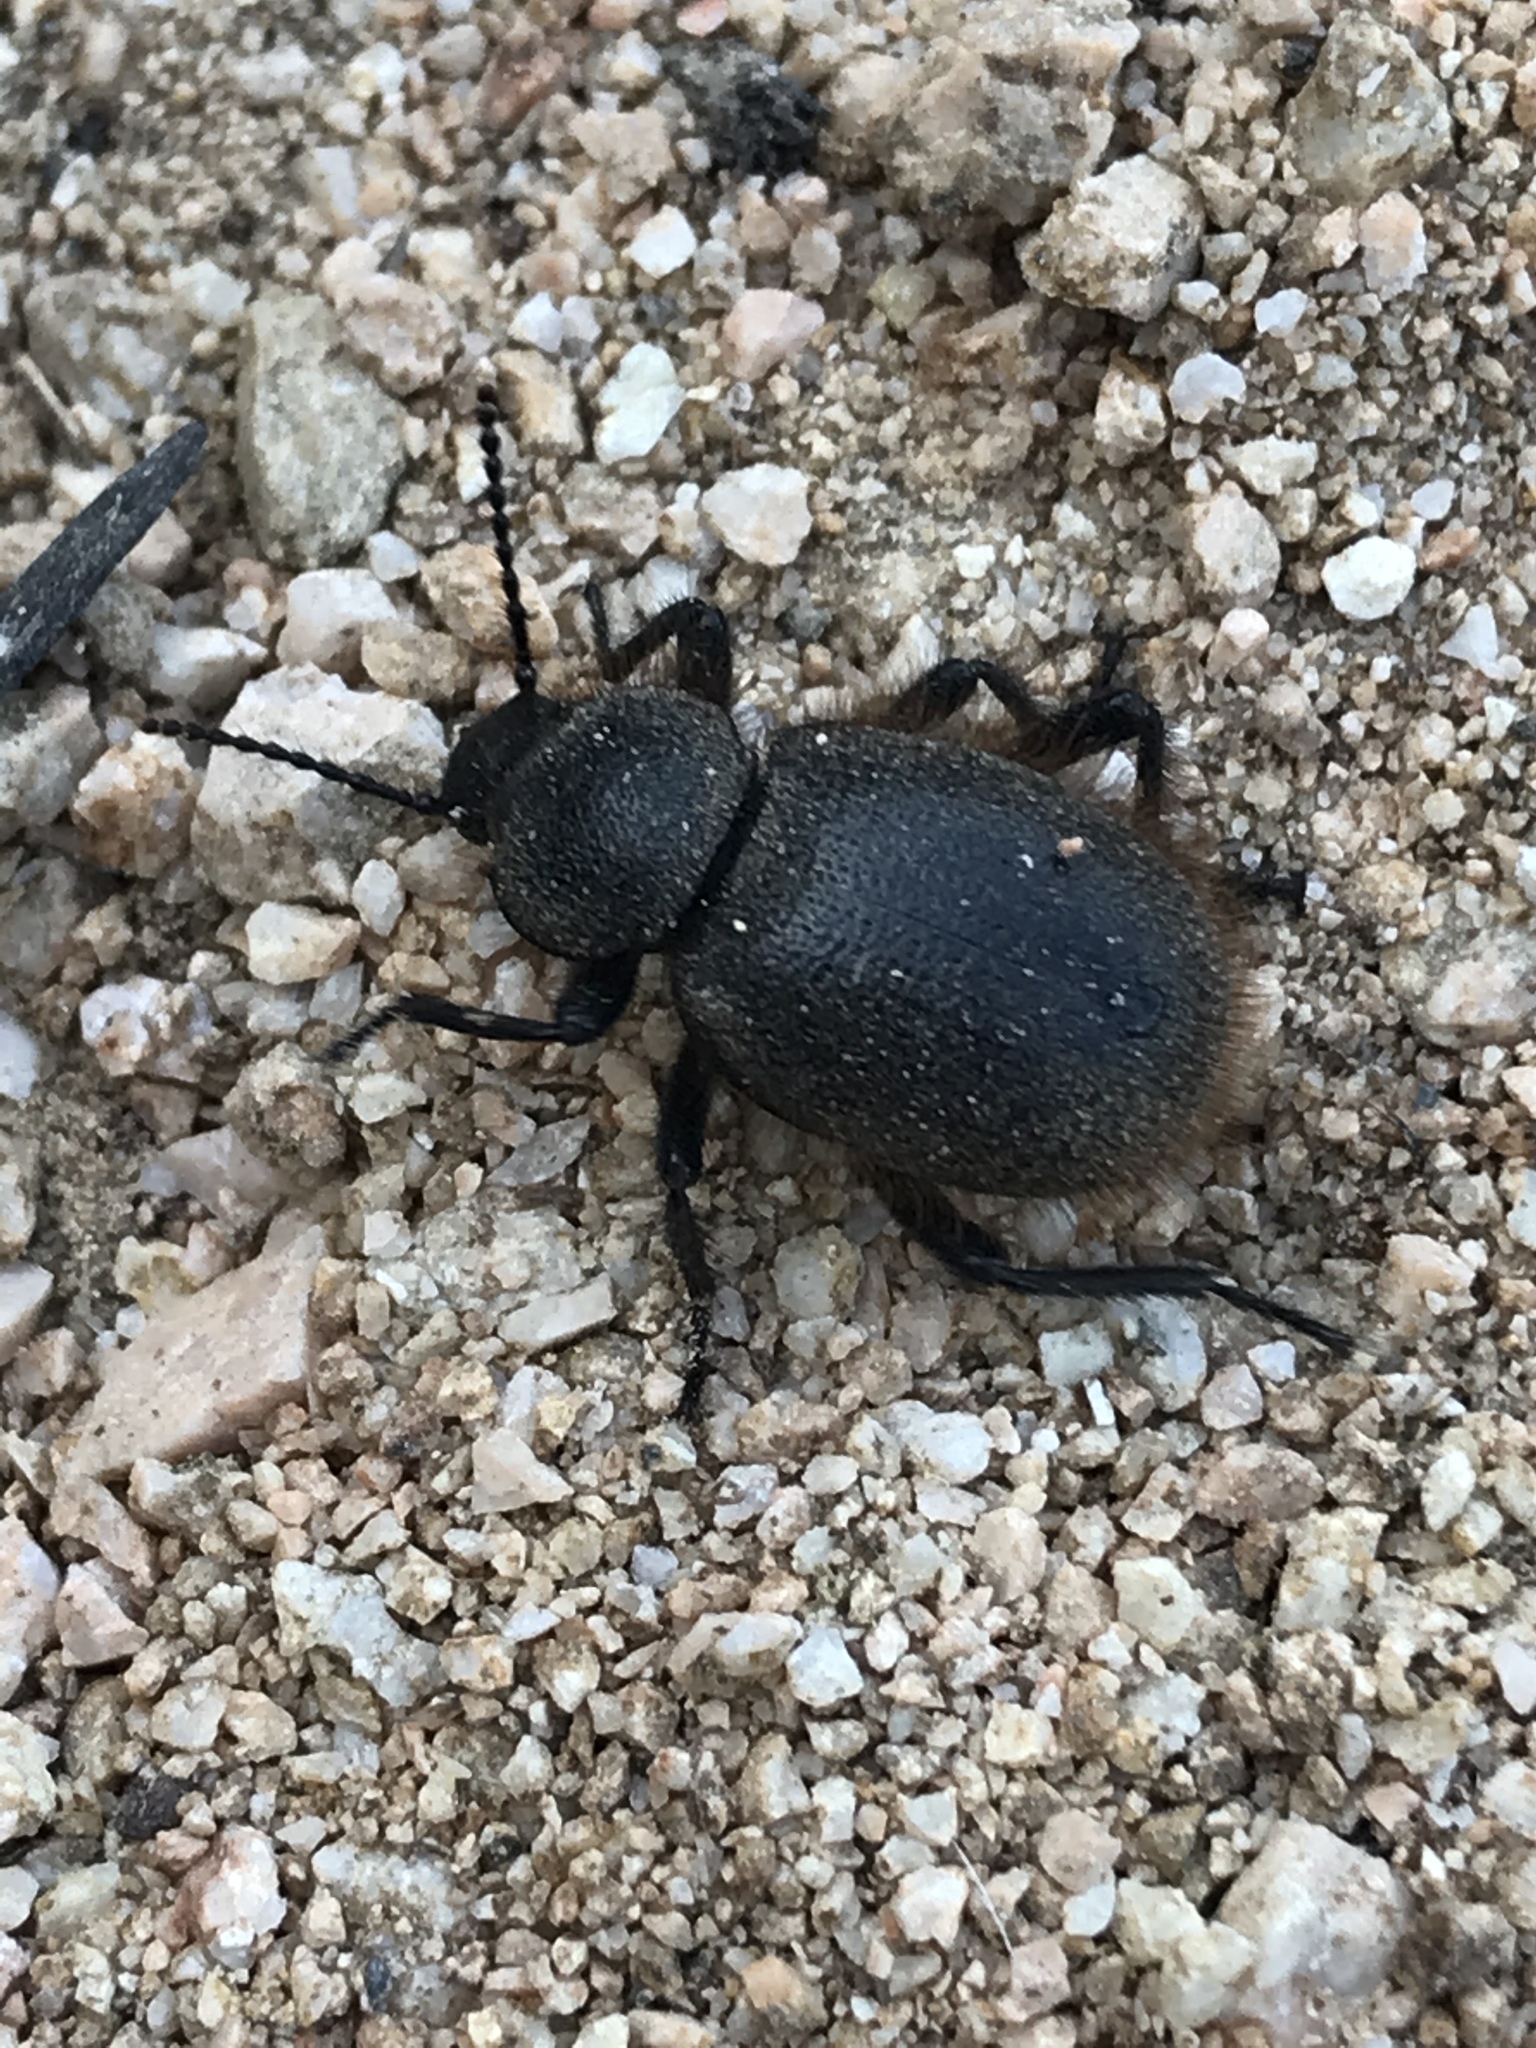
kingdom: Animalia
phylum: Arthropoda
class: Insecta
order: Coleoptera
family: Tenebrionidae
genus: Eleodes
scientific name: Eleodes osculans
